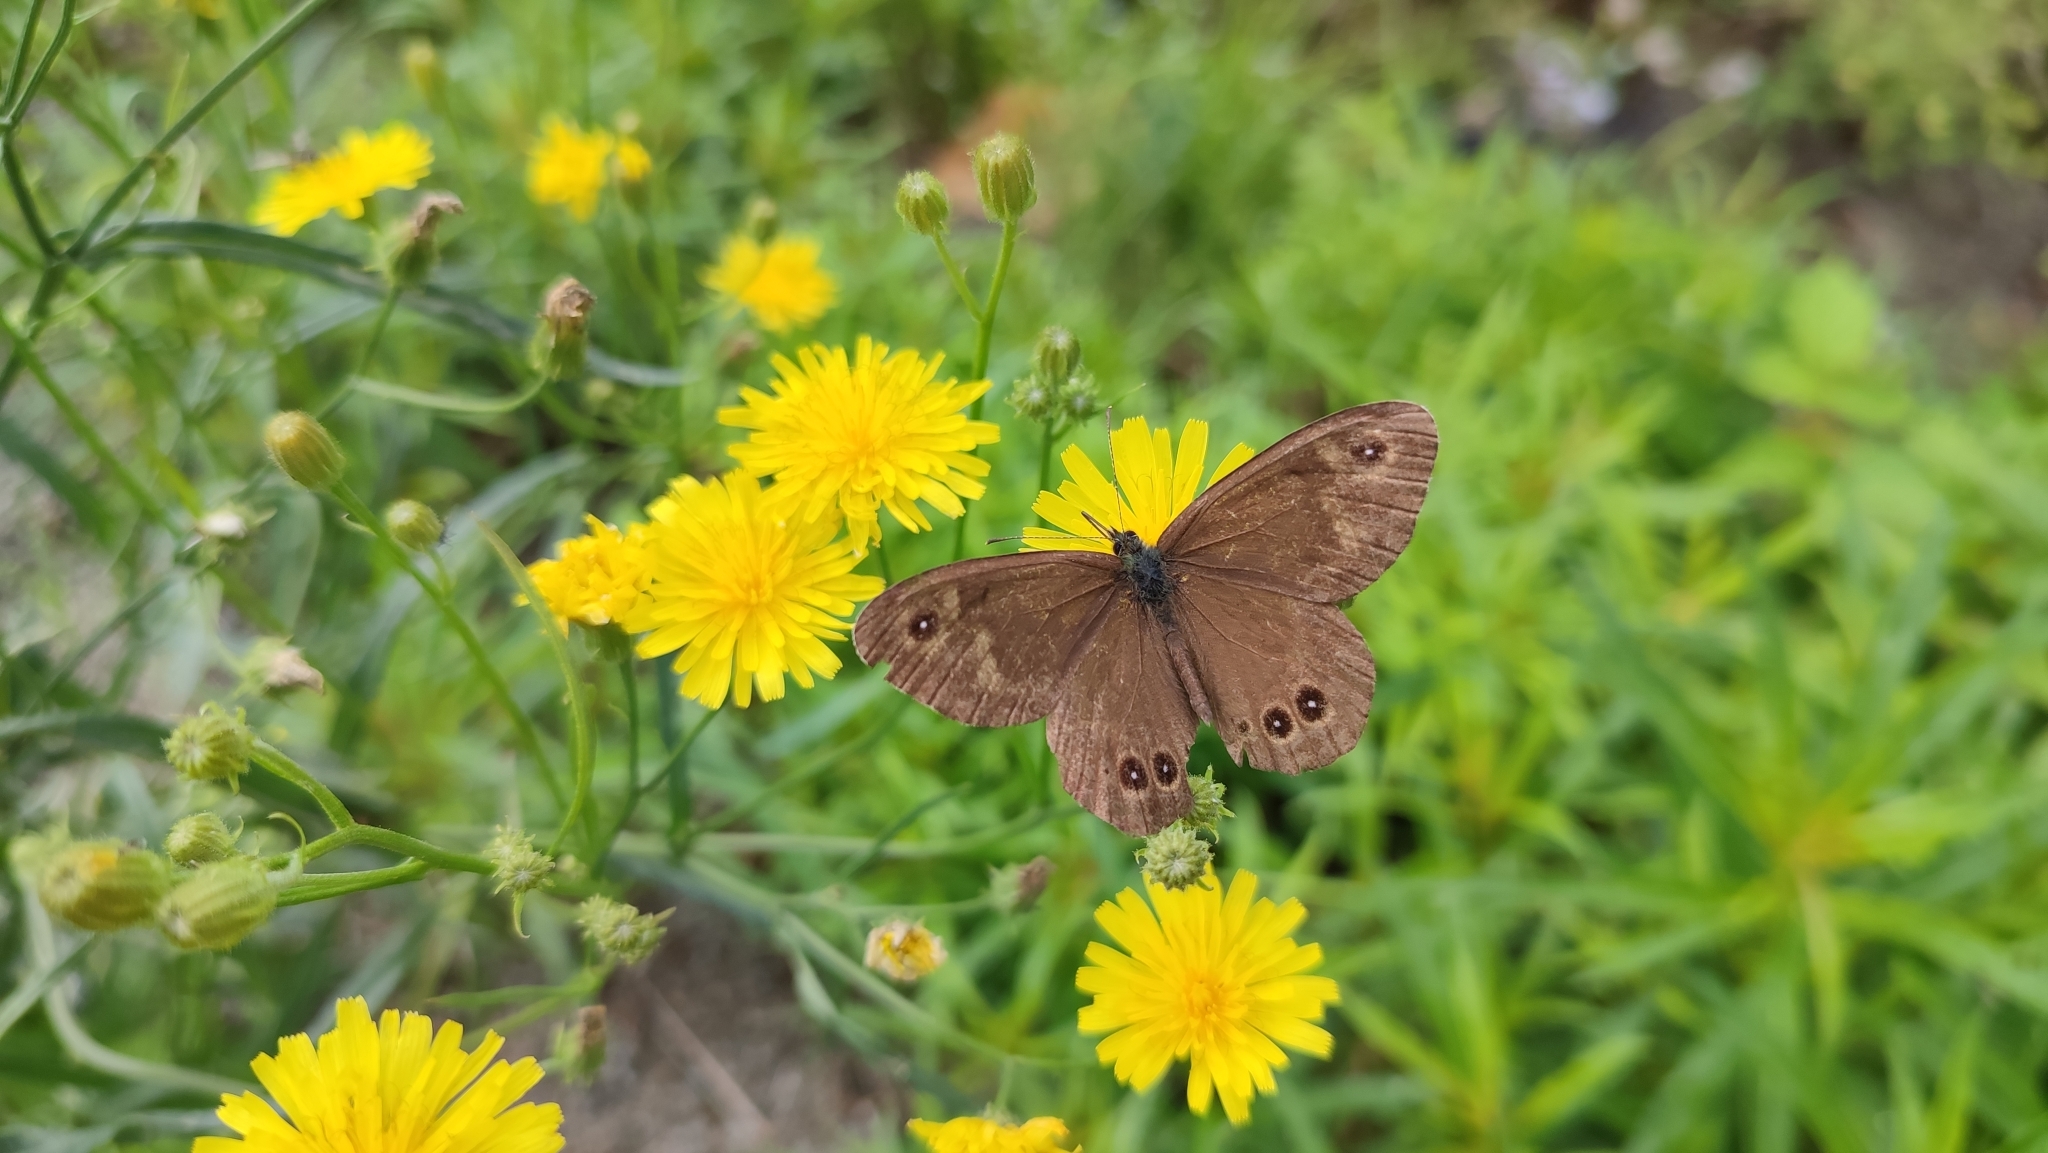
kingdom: Animalia
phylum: Arthropoda
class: Insecta
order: Lepidoptera
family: Nymphalidae
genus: Pararge
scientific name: Pararge Lasiommata deidamia
